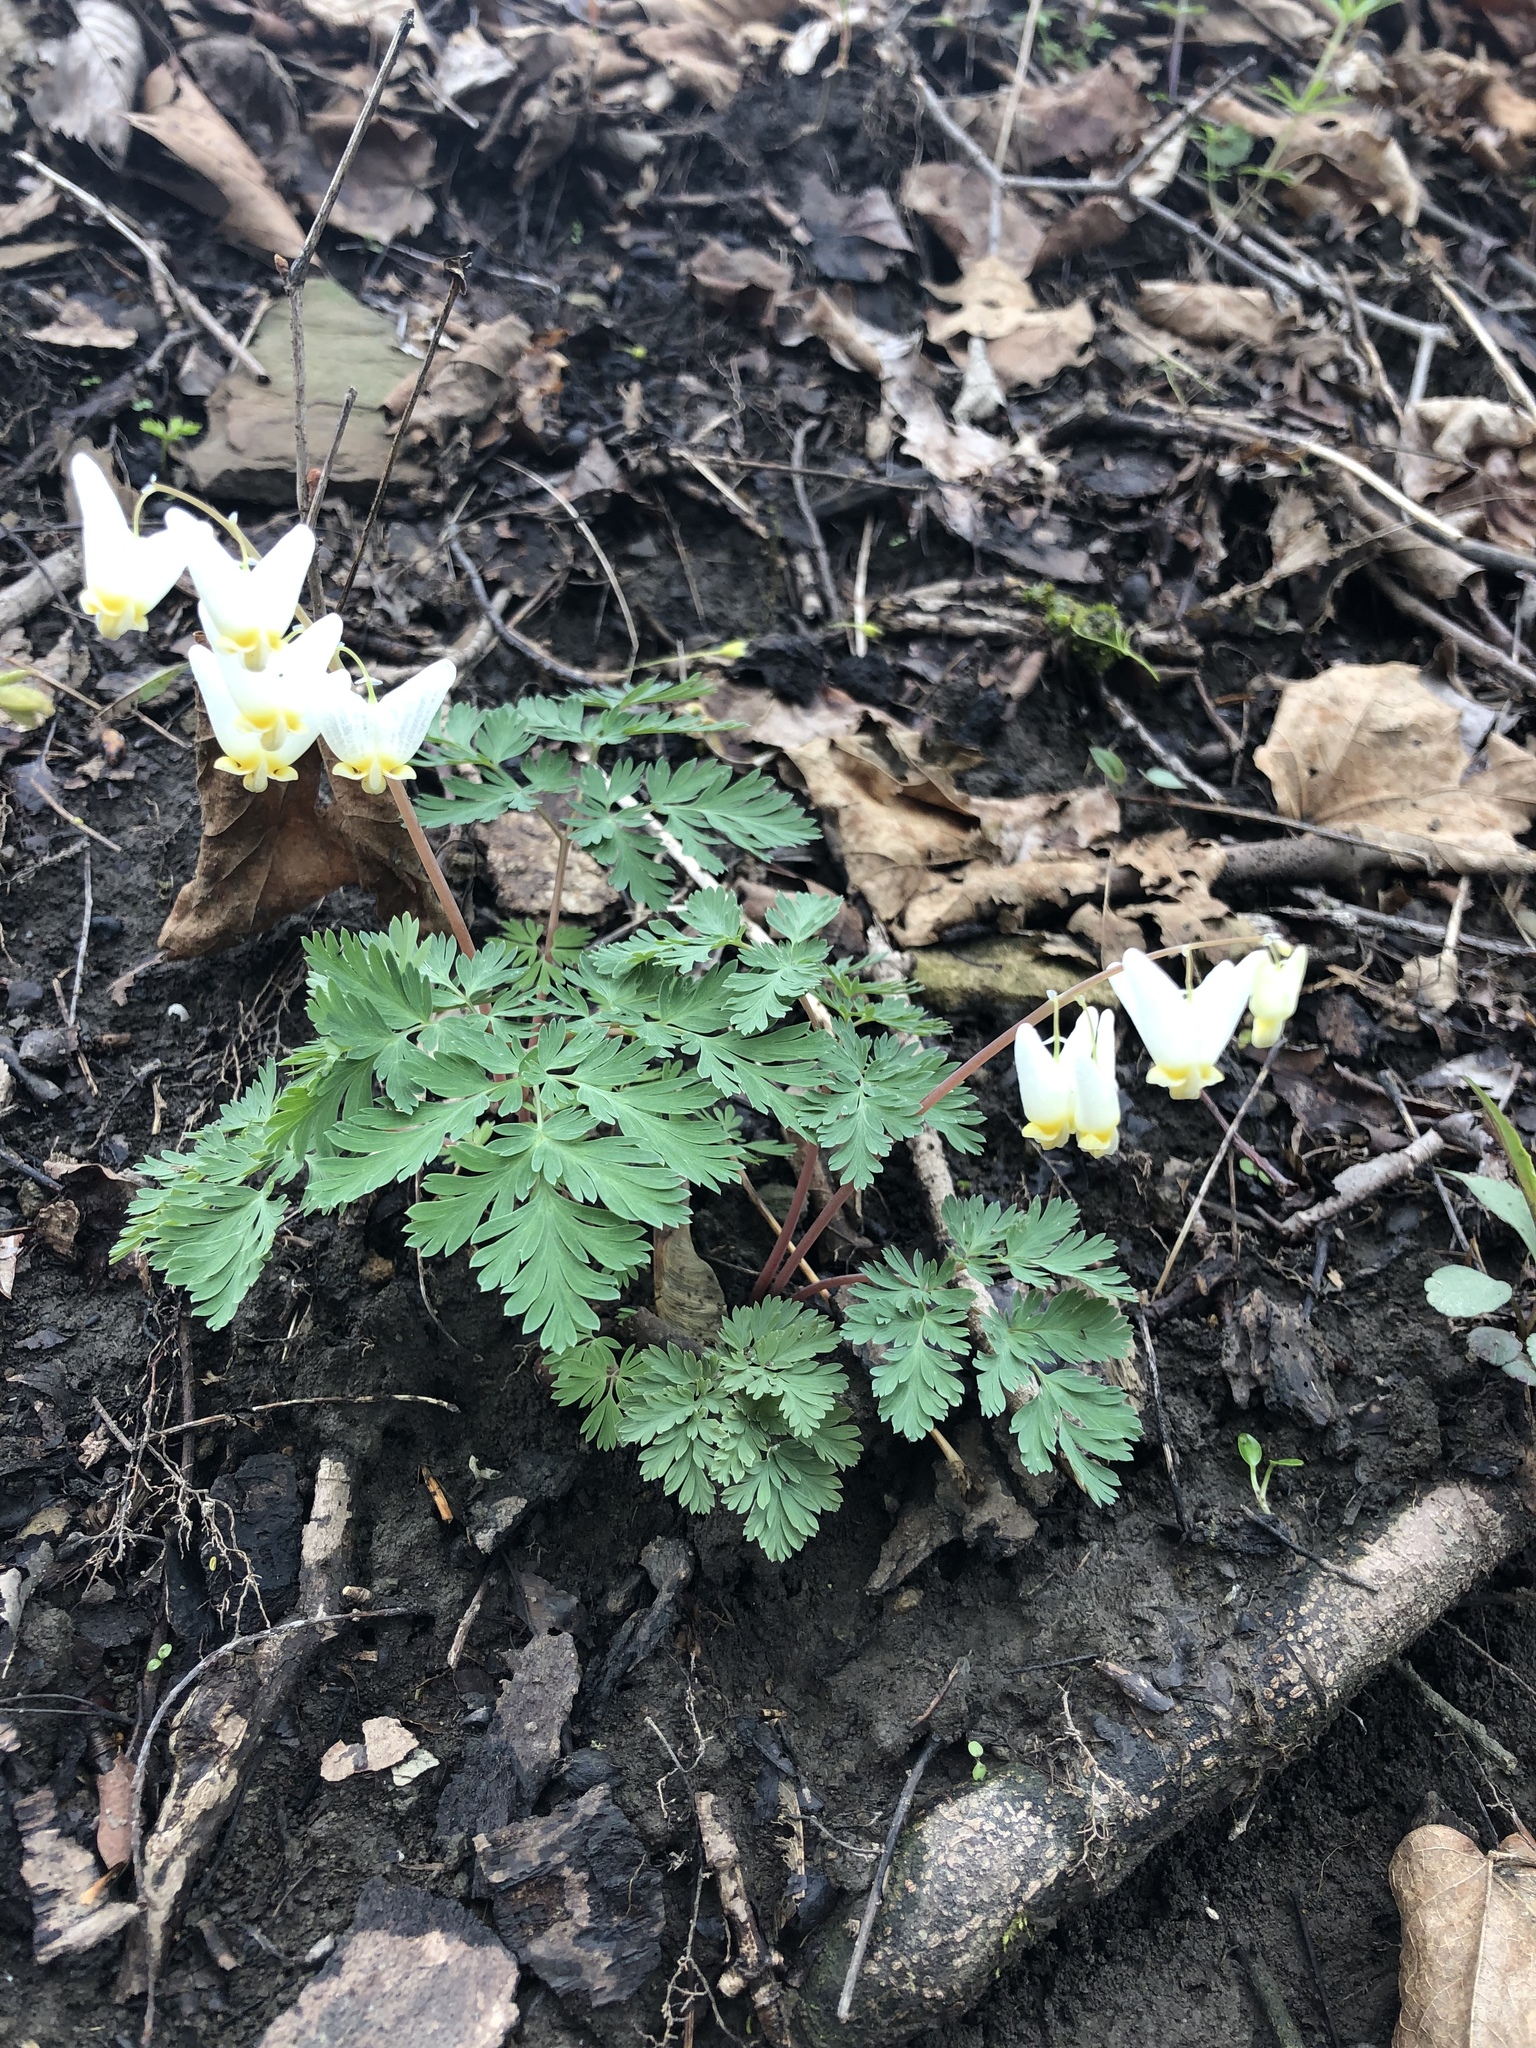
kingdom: Plantae
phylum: Tracheophyta
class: Magnoliopsida
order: Ranunculales
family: Papaveraceae
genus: Dicentra
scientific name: Dicentra cucullaria
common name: Dutchman's breeches
